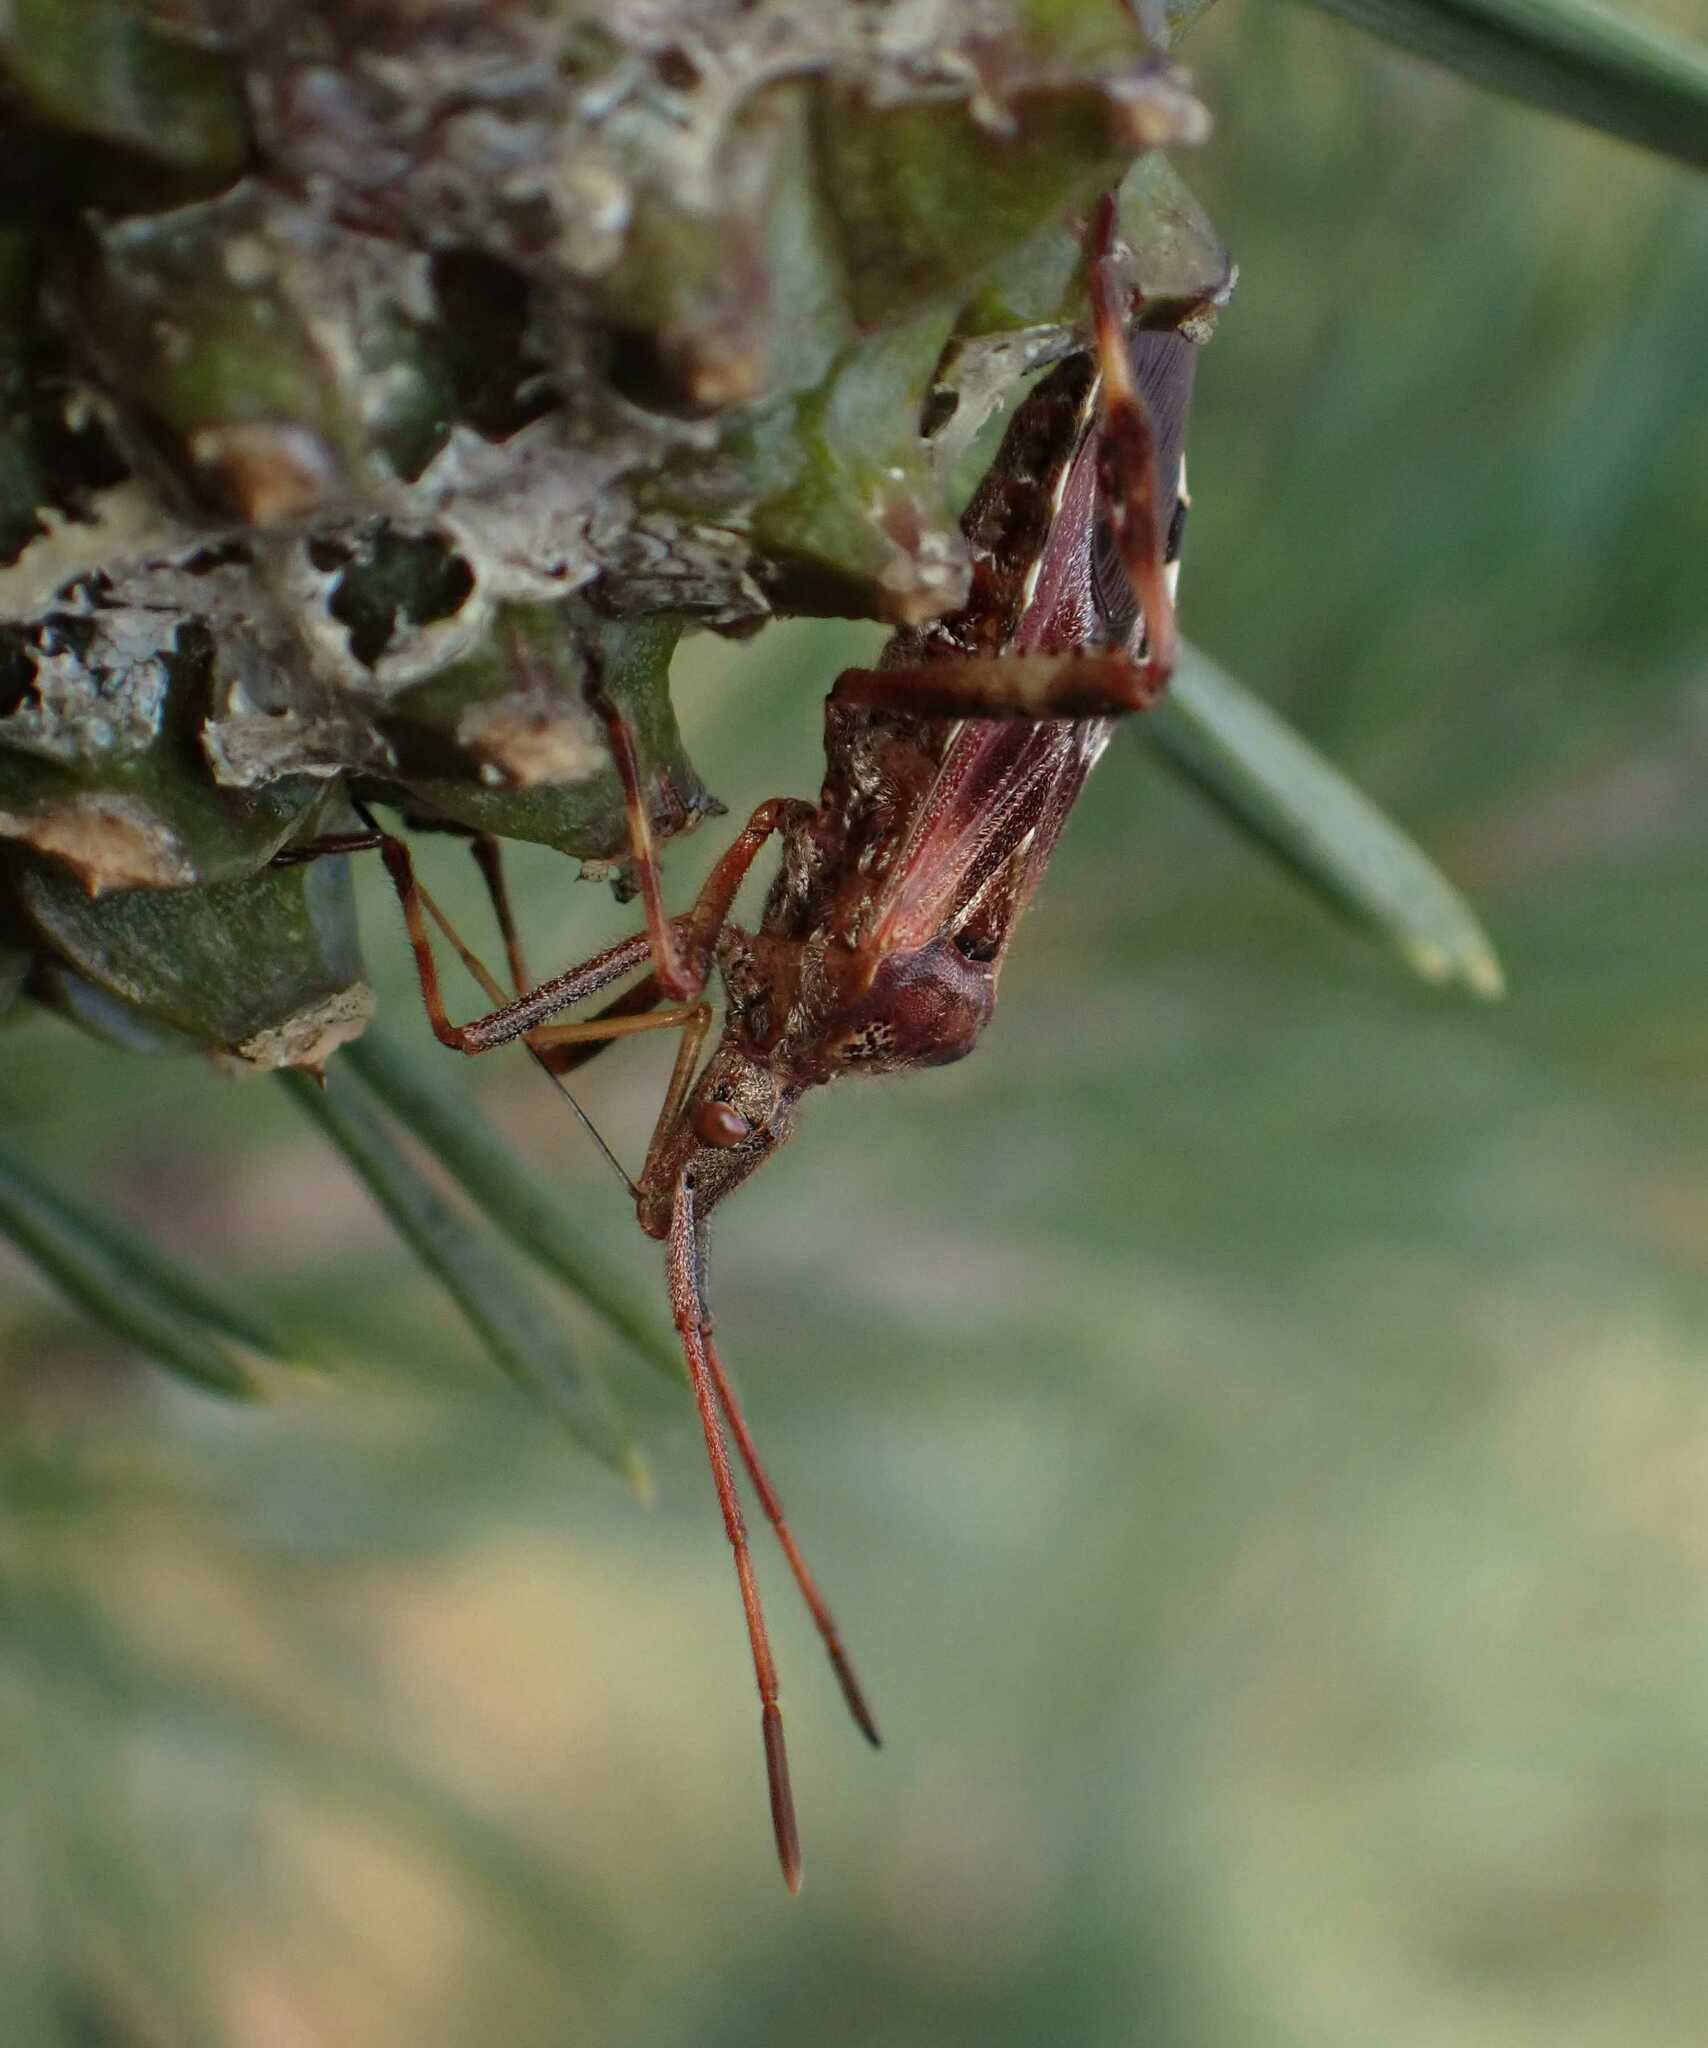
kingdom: Animalia
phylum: Arthropoda
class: Insecta
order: Hemiptera
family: Coreidae
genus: Leptoglossus
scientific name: Leptoglossus occidentalis
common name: Western conifer-seed bug
